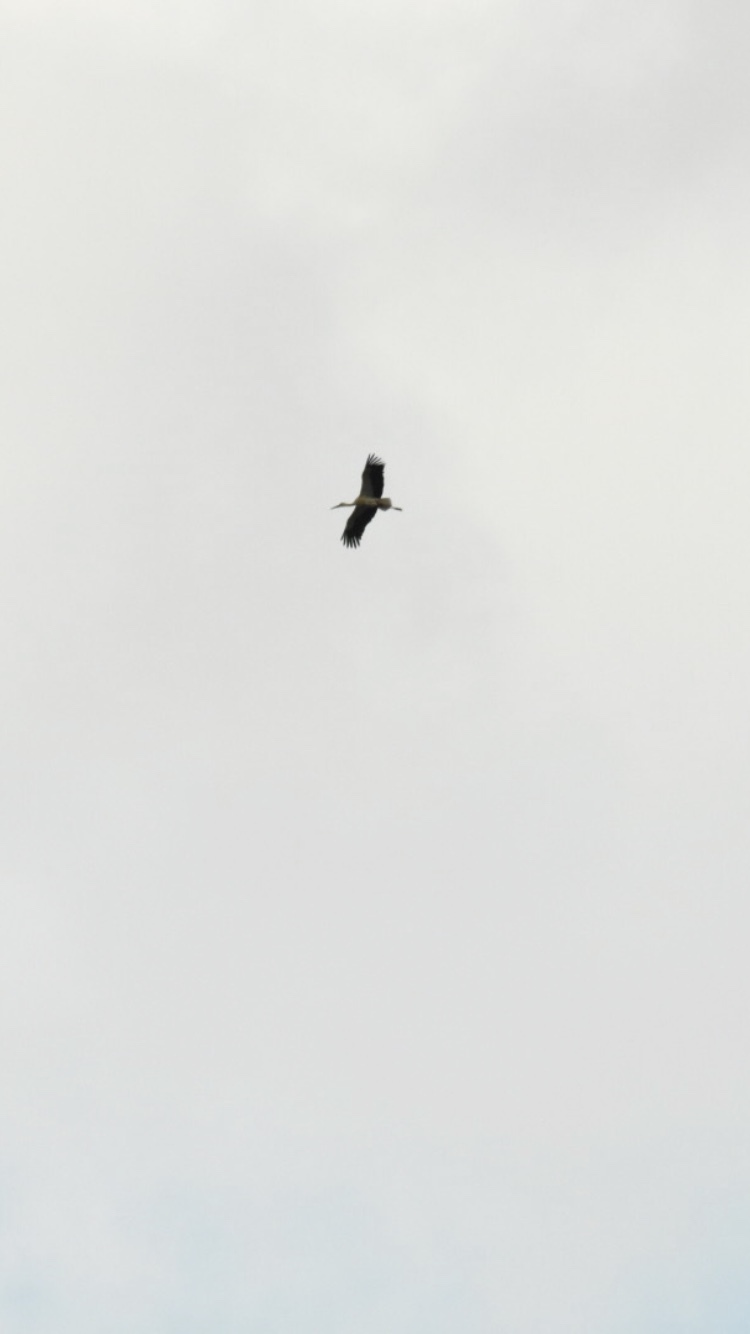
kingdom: Animalia
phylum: Chordata
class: Aves
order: Ciconiiformes
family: Ciconiidae
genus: Ciconia
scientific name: Ciconia ciconia
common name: White stork
